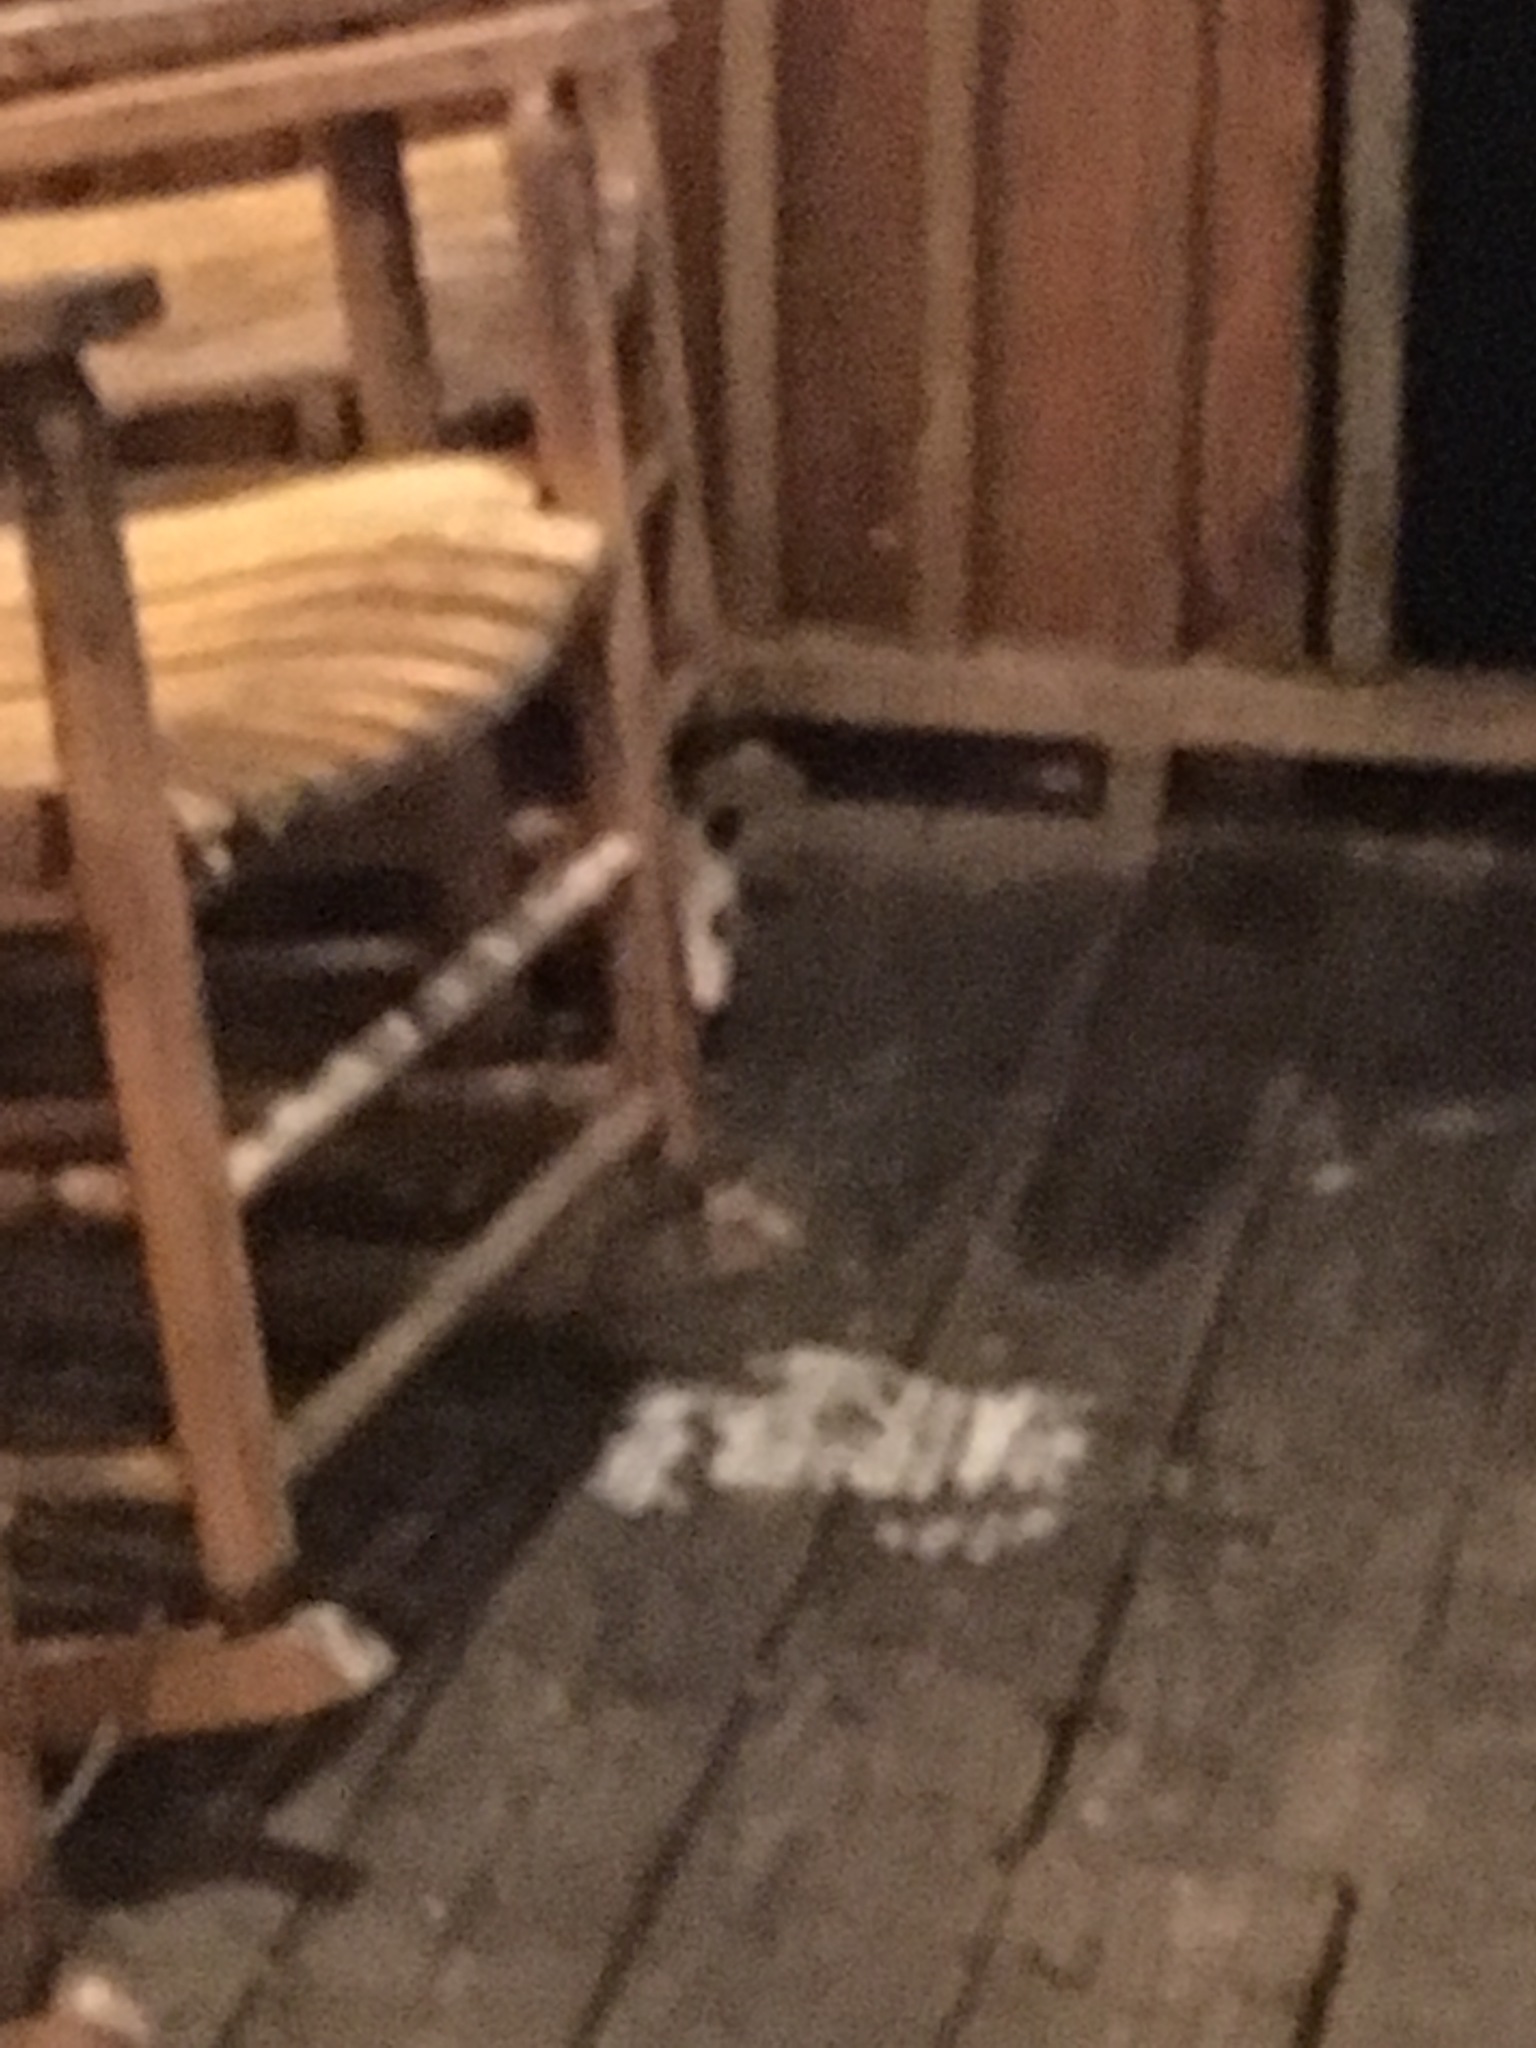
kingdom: Animalia
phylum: Chordata
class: Mammalia
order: Didelphimorphia
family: Didelphidae
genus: Didelphis
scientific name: Didelphis virginiana
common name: Virginia opossum
